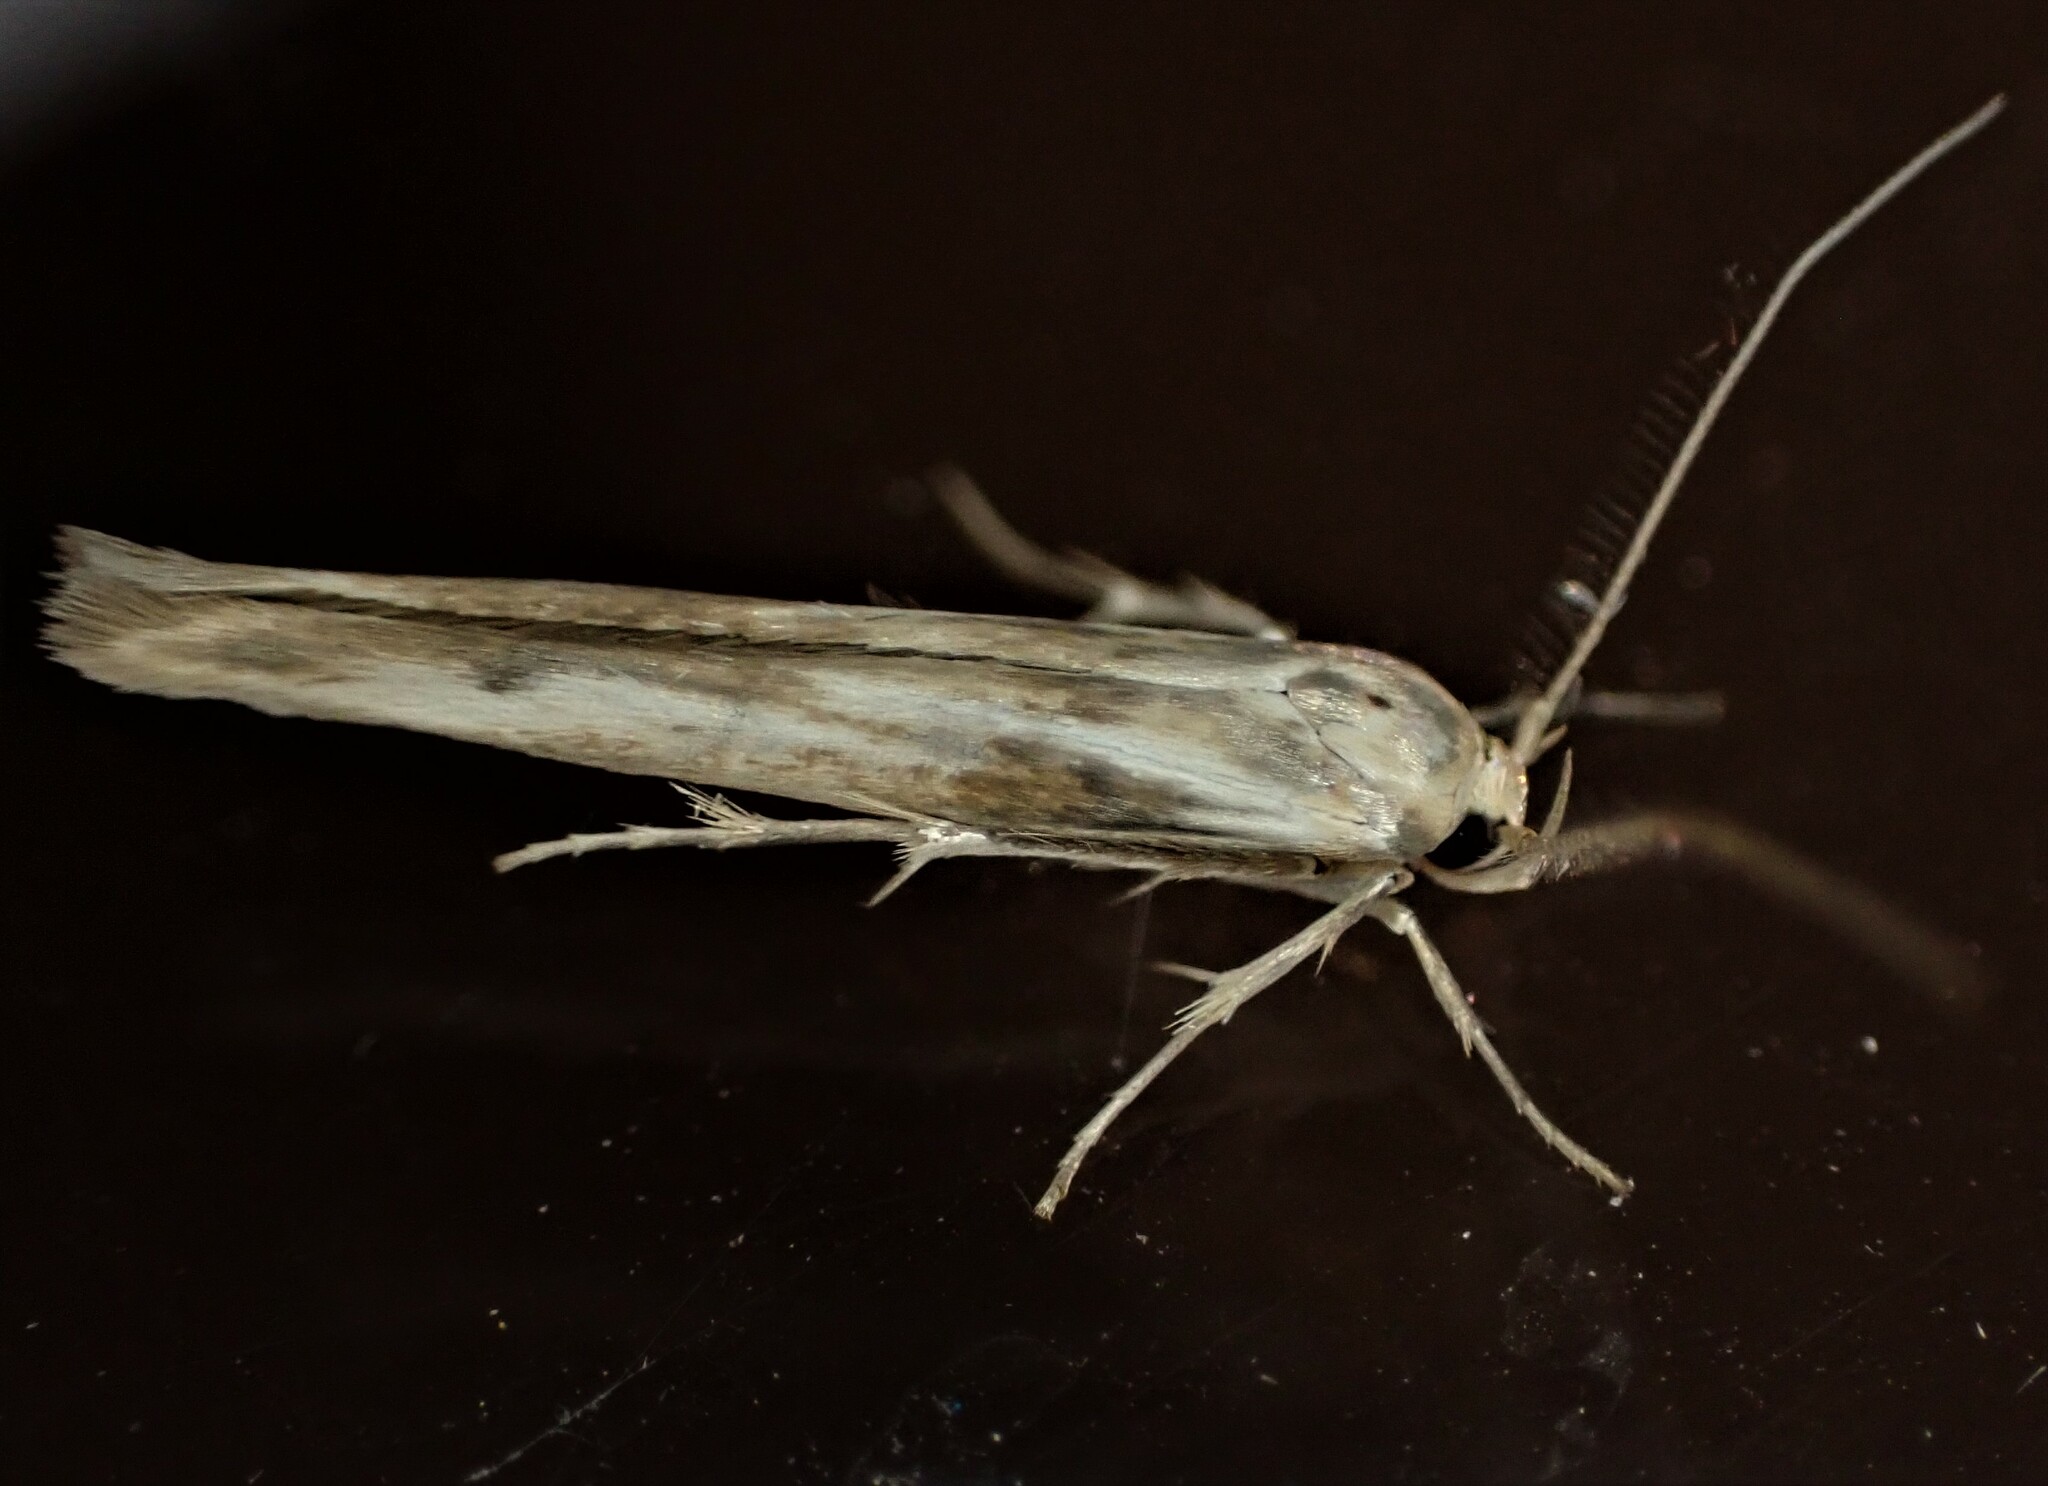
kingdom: Animalia
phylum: Arthropoda
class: Insecta
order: Lepidoptera
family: Stathmopodidae
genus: Stathmopoda
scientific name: Stathmopoda aposema
